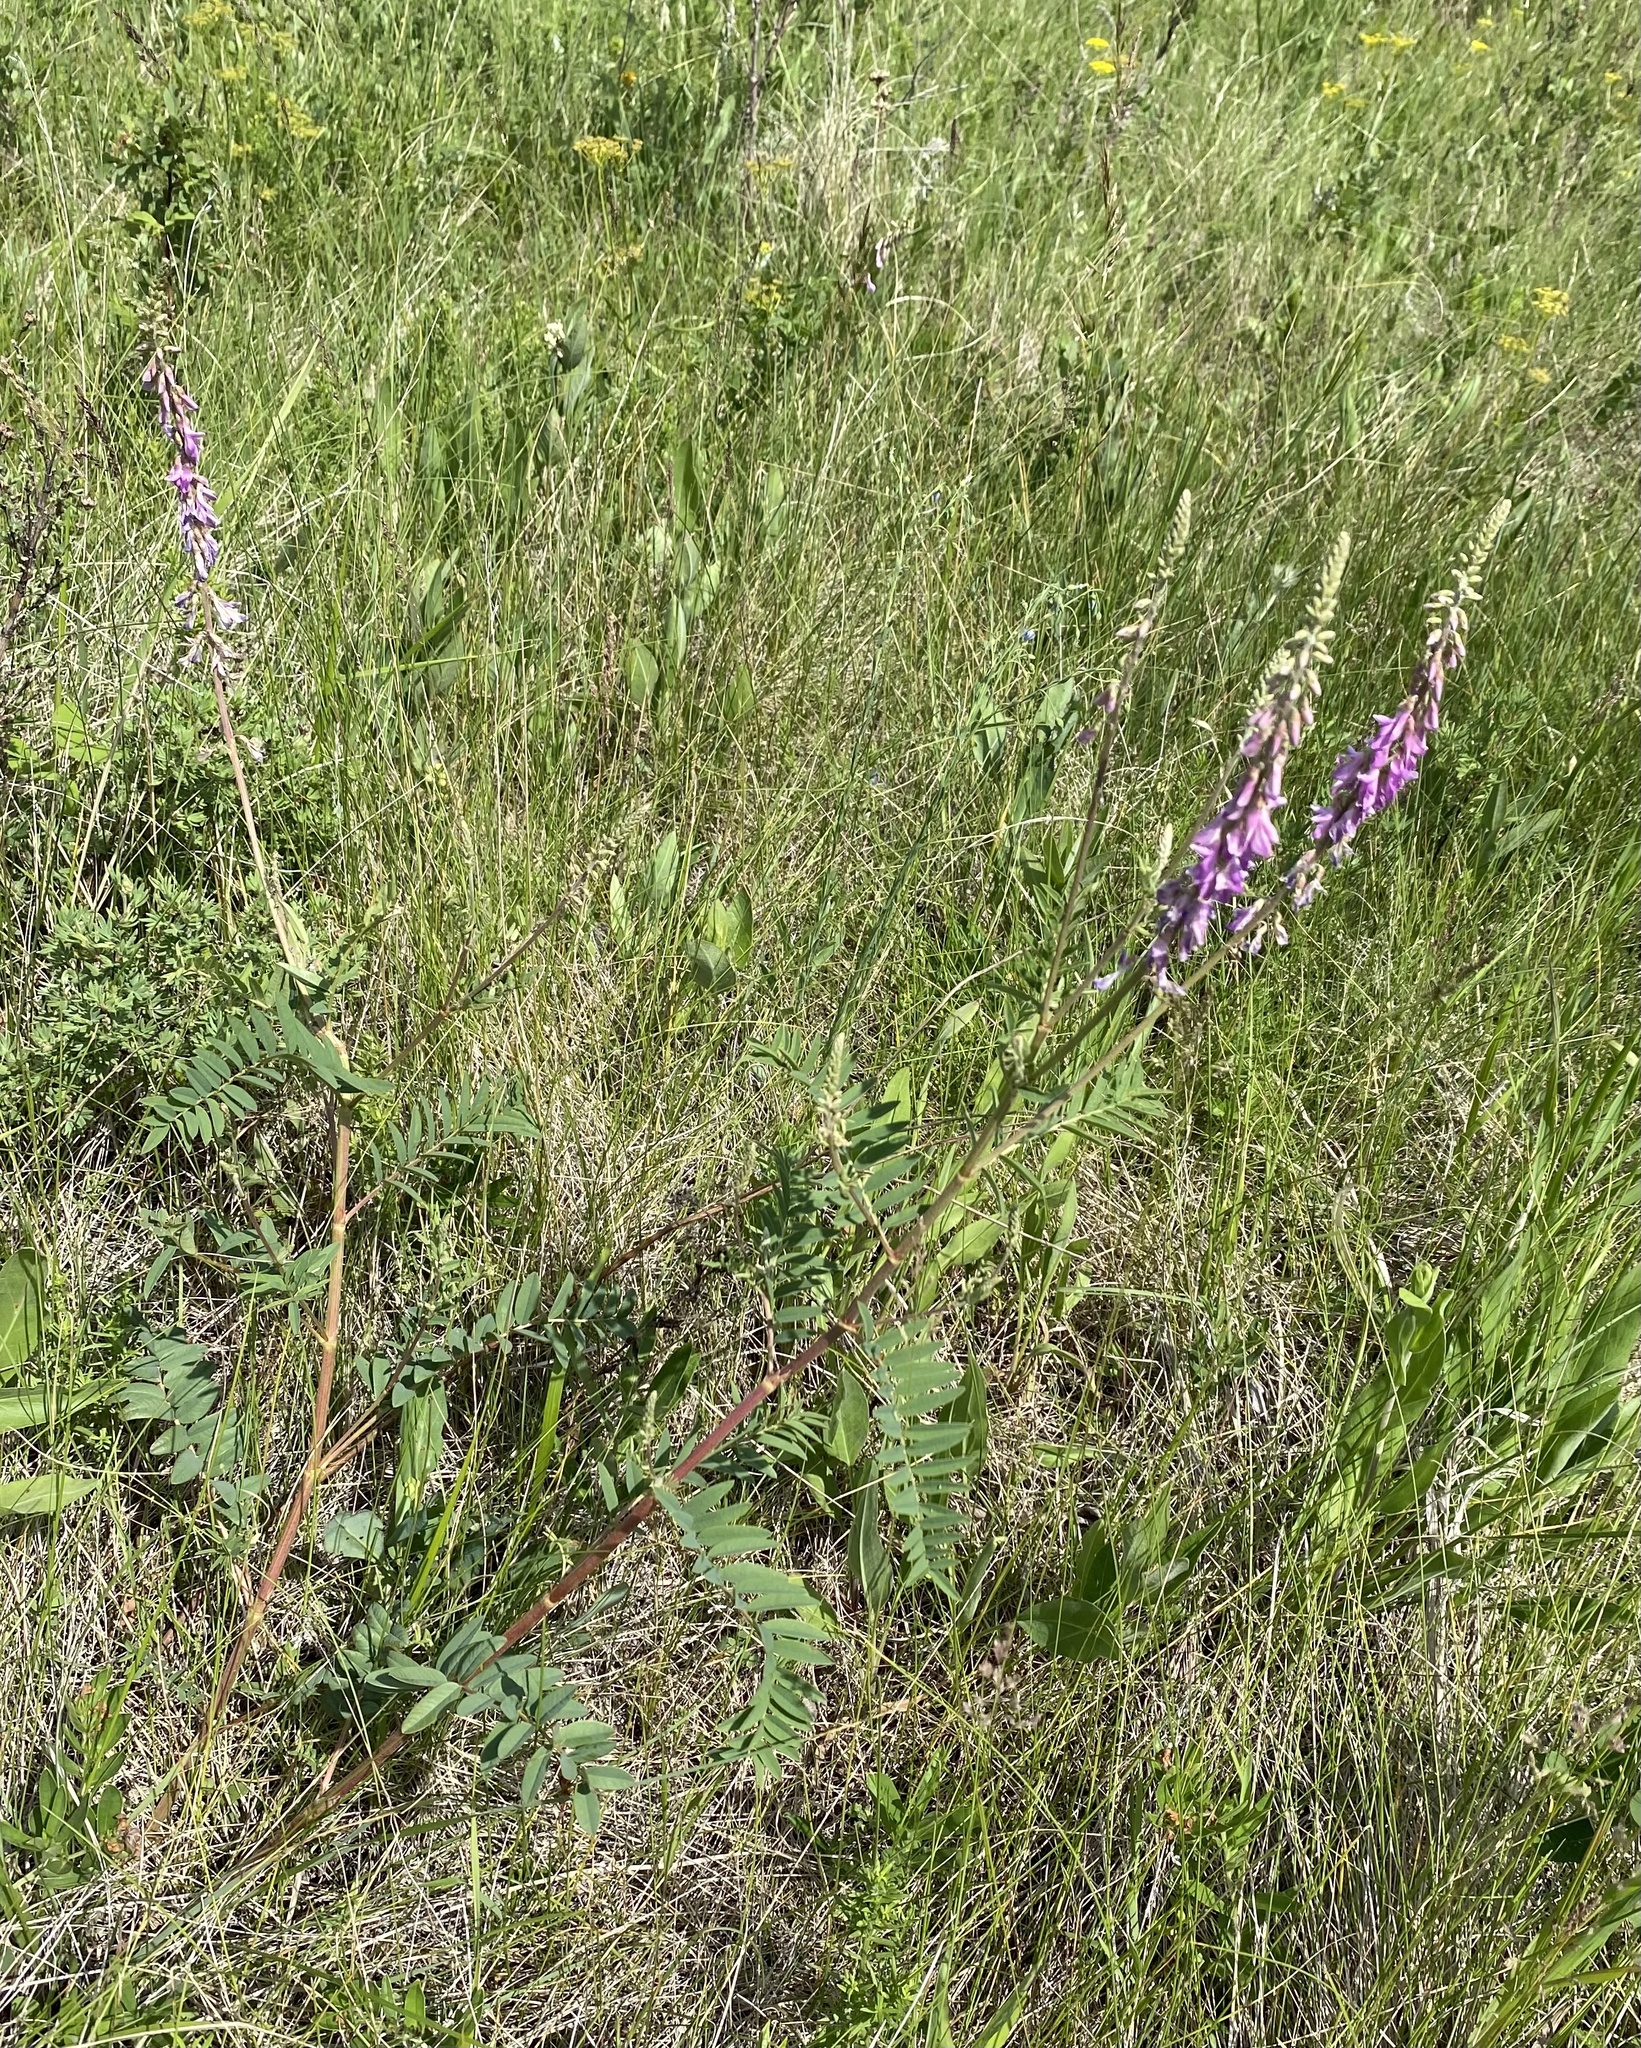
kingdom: Plantae
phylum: Tracheophyta
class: Magnoliopsida
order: Fabales
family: Fabaceae
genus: Hedysarum
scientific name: Hedysarum alpinum
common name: Alpine sweet-vetch
